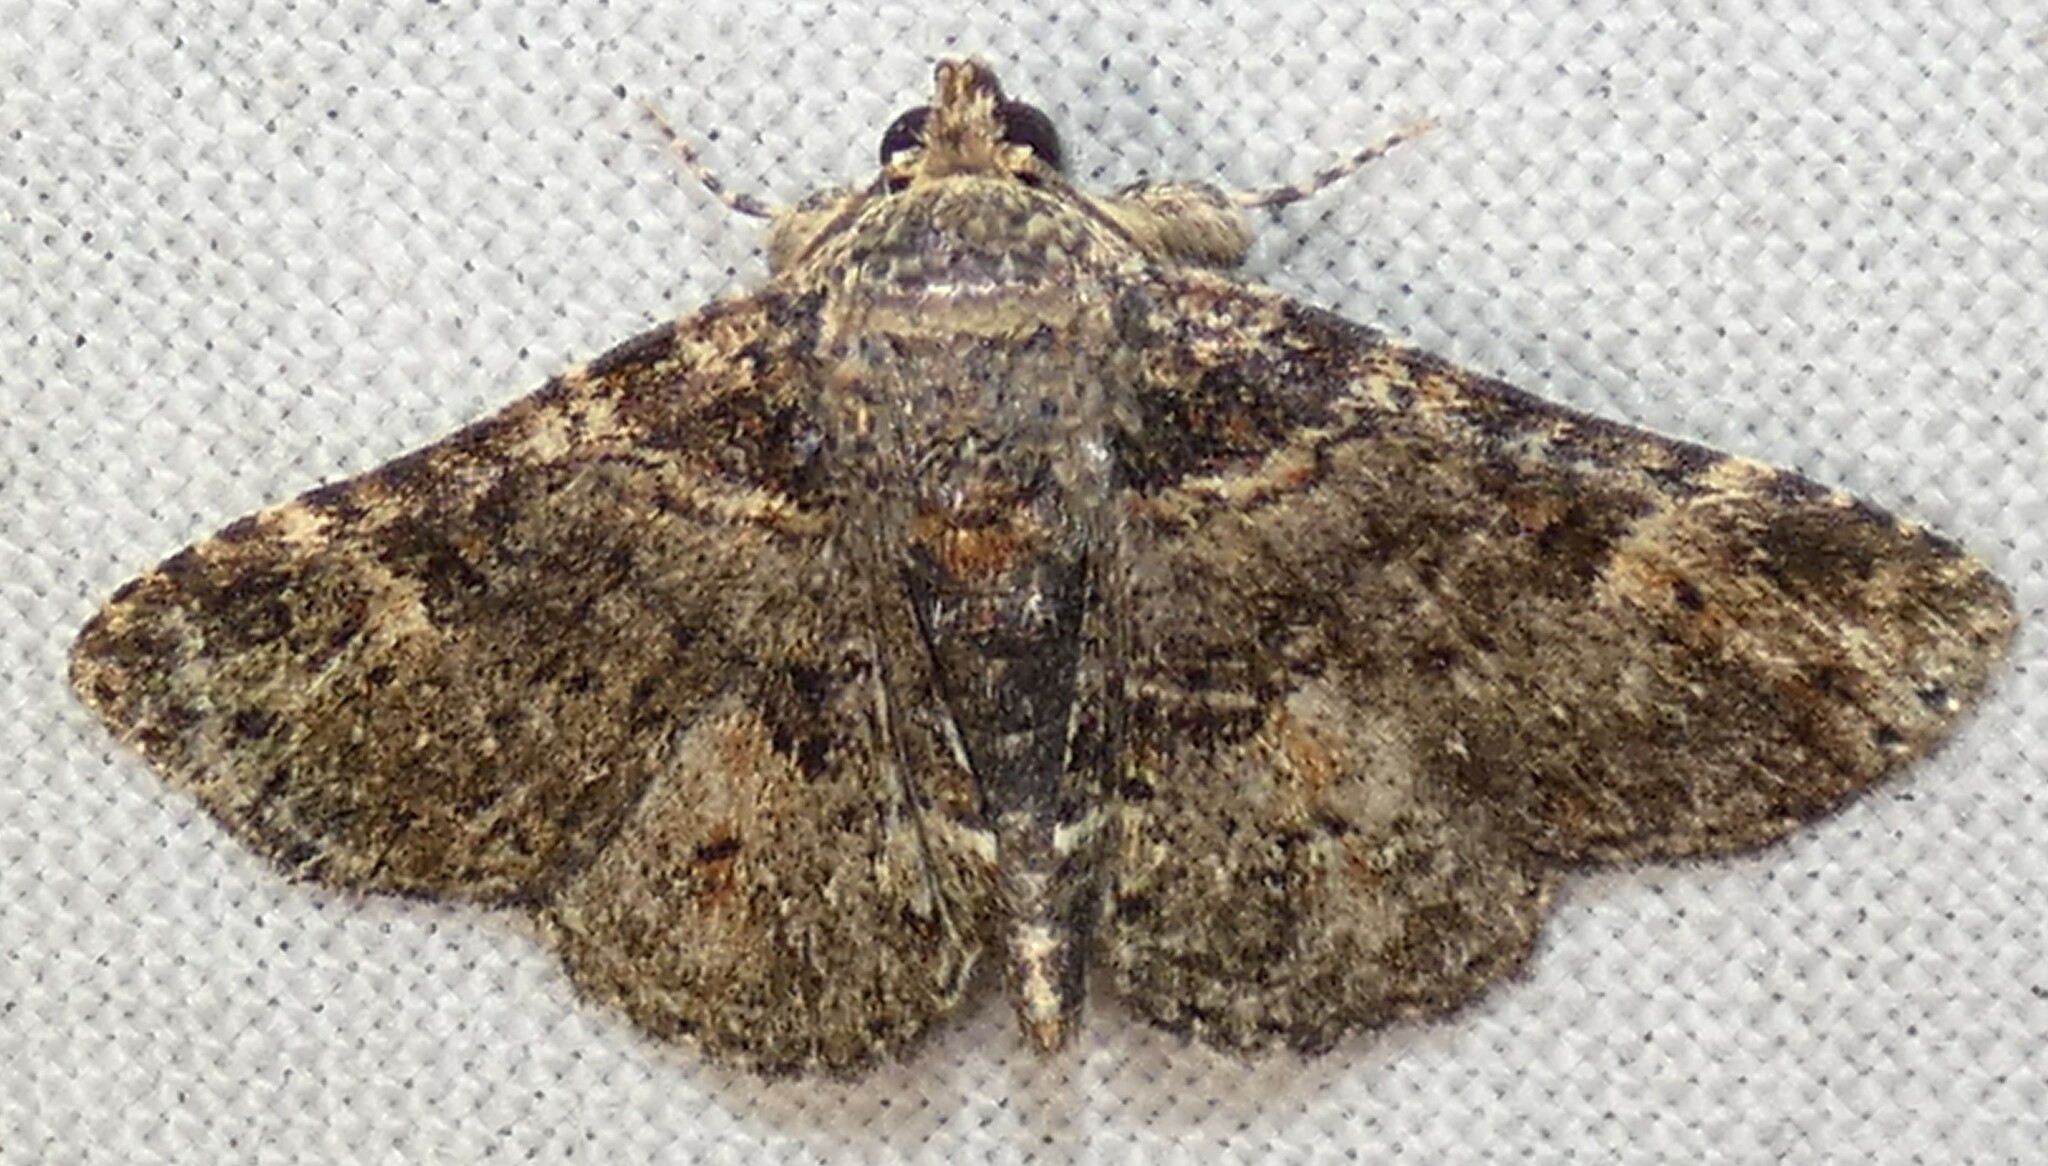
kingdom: Animalia
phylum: Arthropoda
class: Insecta
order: Lepidoptera
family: Erebidae
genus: Metalectra
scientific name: Metalectra discalis
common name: Common fungus moth
